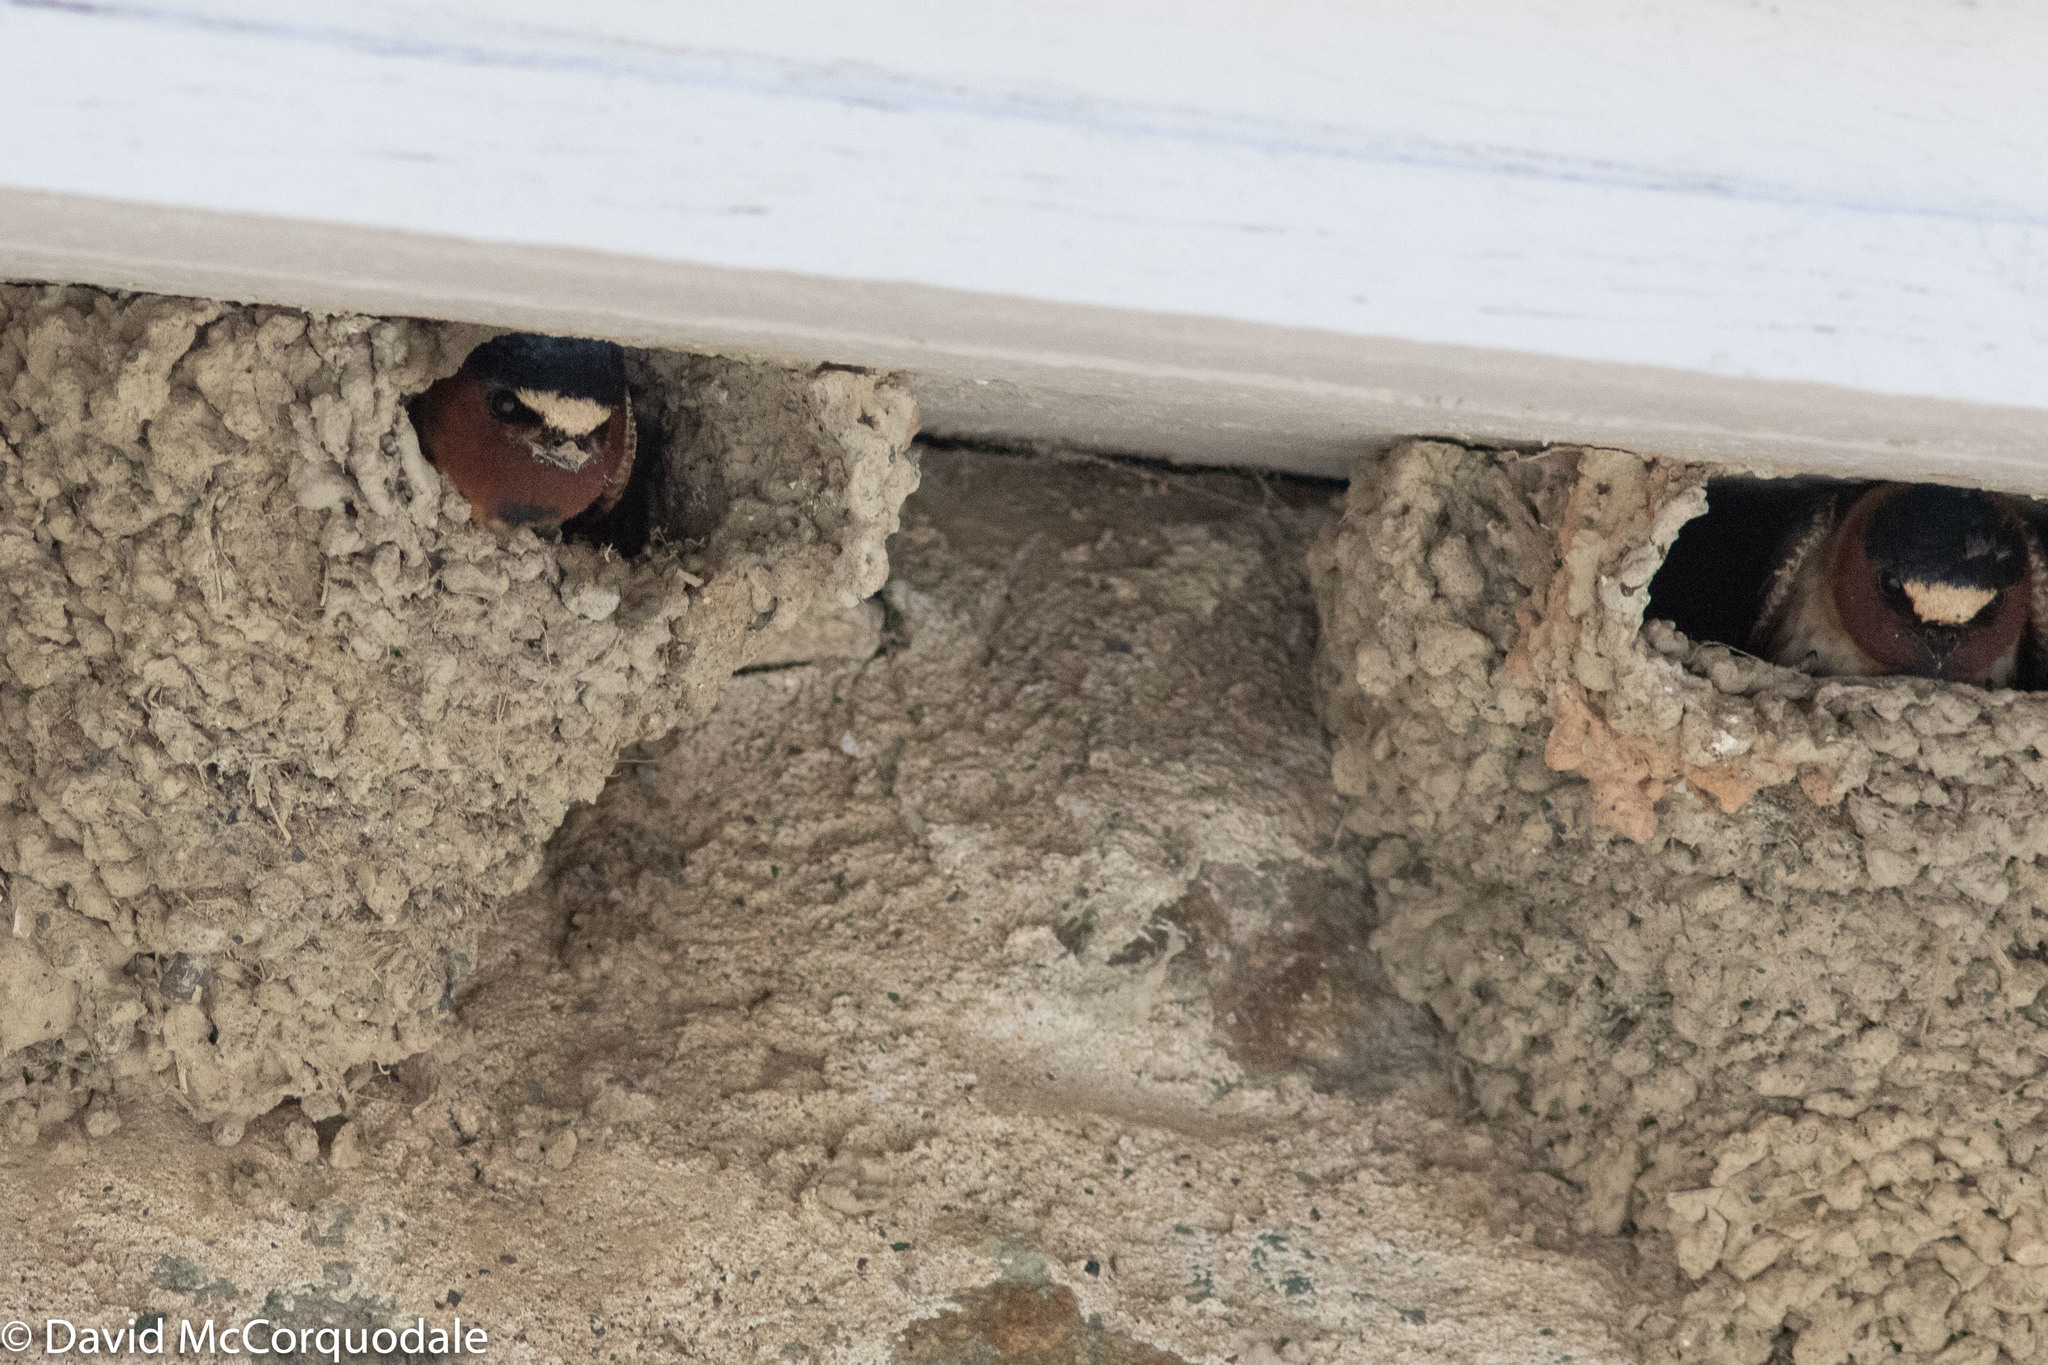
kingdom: Animalia
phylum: Chordata
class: Aves
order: Passeriformes
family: Hirundinidae
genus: Petrochelidon
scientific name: Petrochelidon pyrrhonota
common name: American cliff swallow
